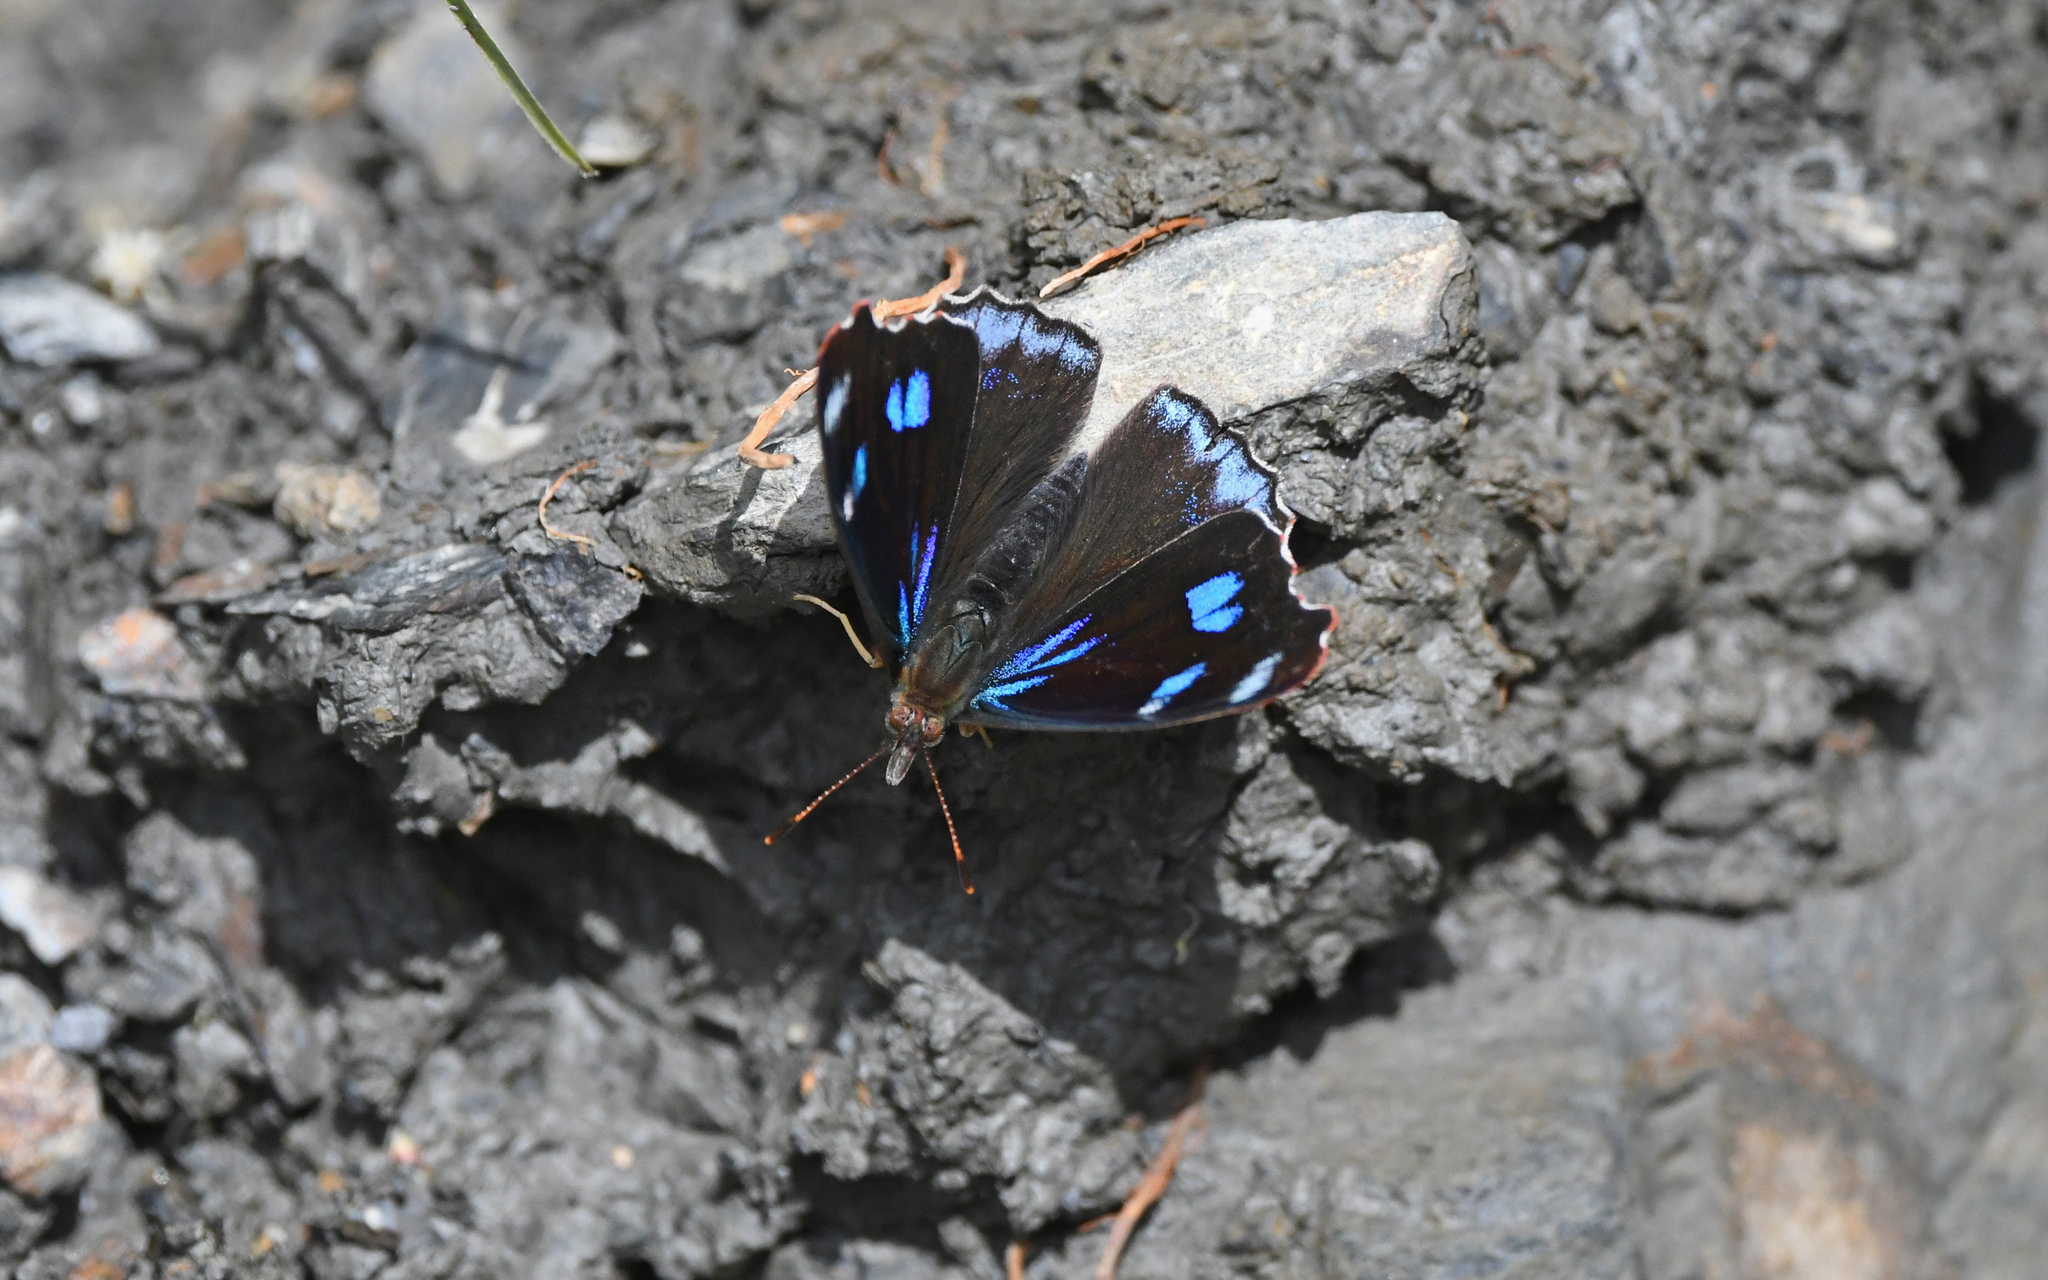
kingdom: Animalia
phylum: Arthropoda
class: Insecta
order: Lepidoptera
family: Nymphalidae
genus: Perisama
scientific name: Perisama diotima
